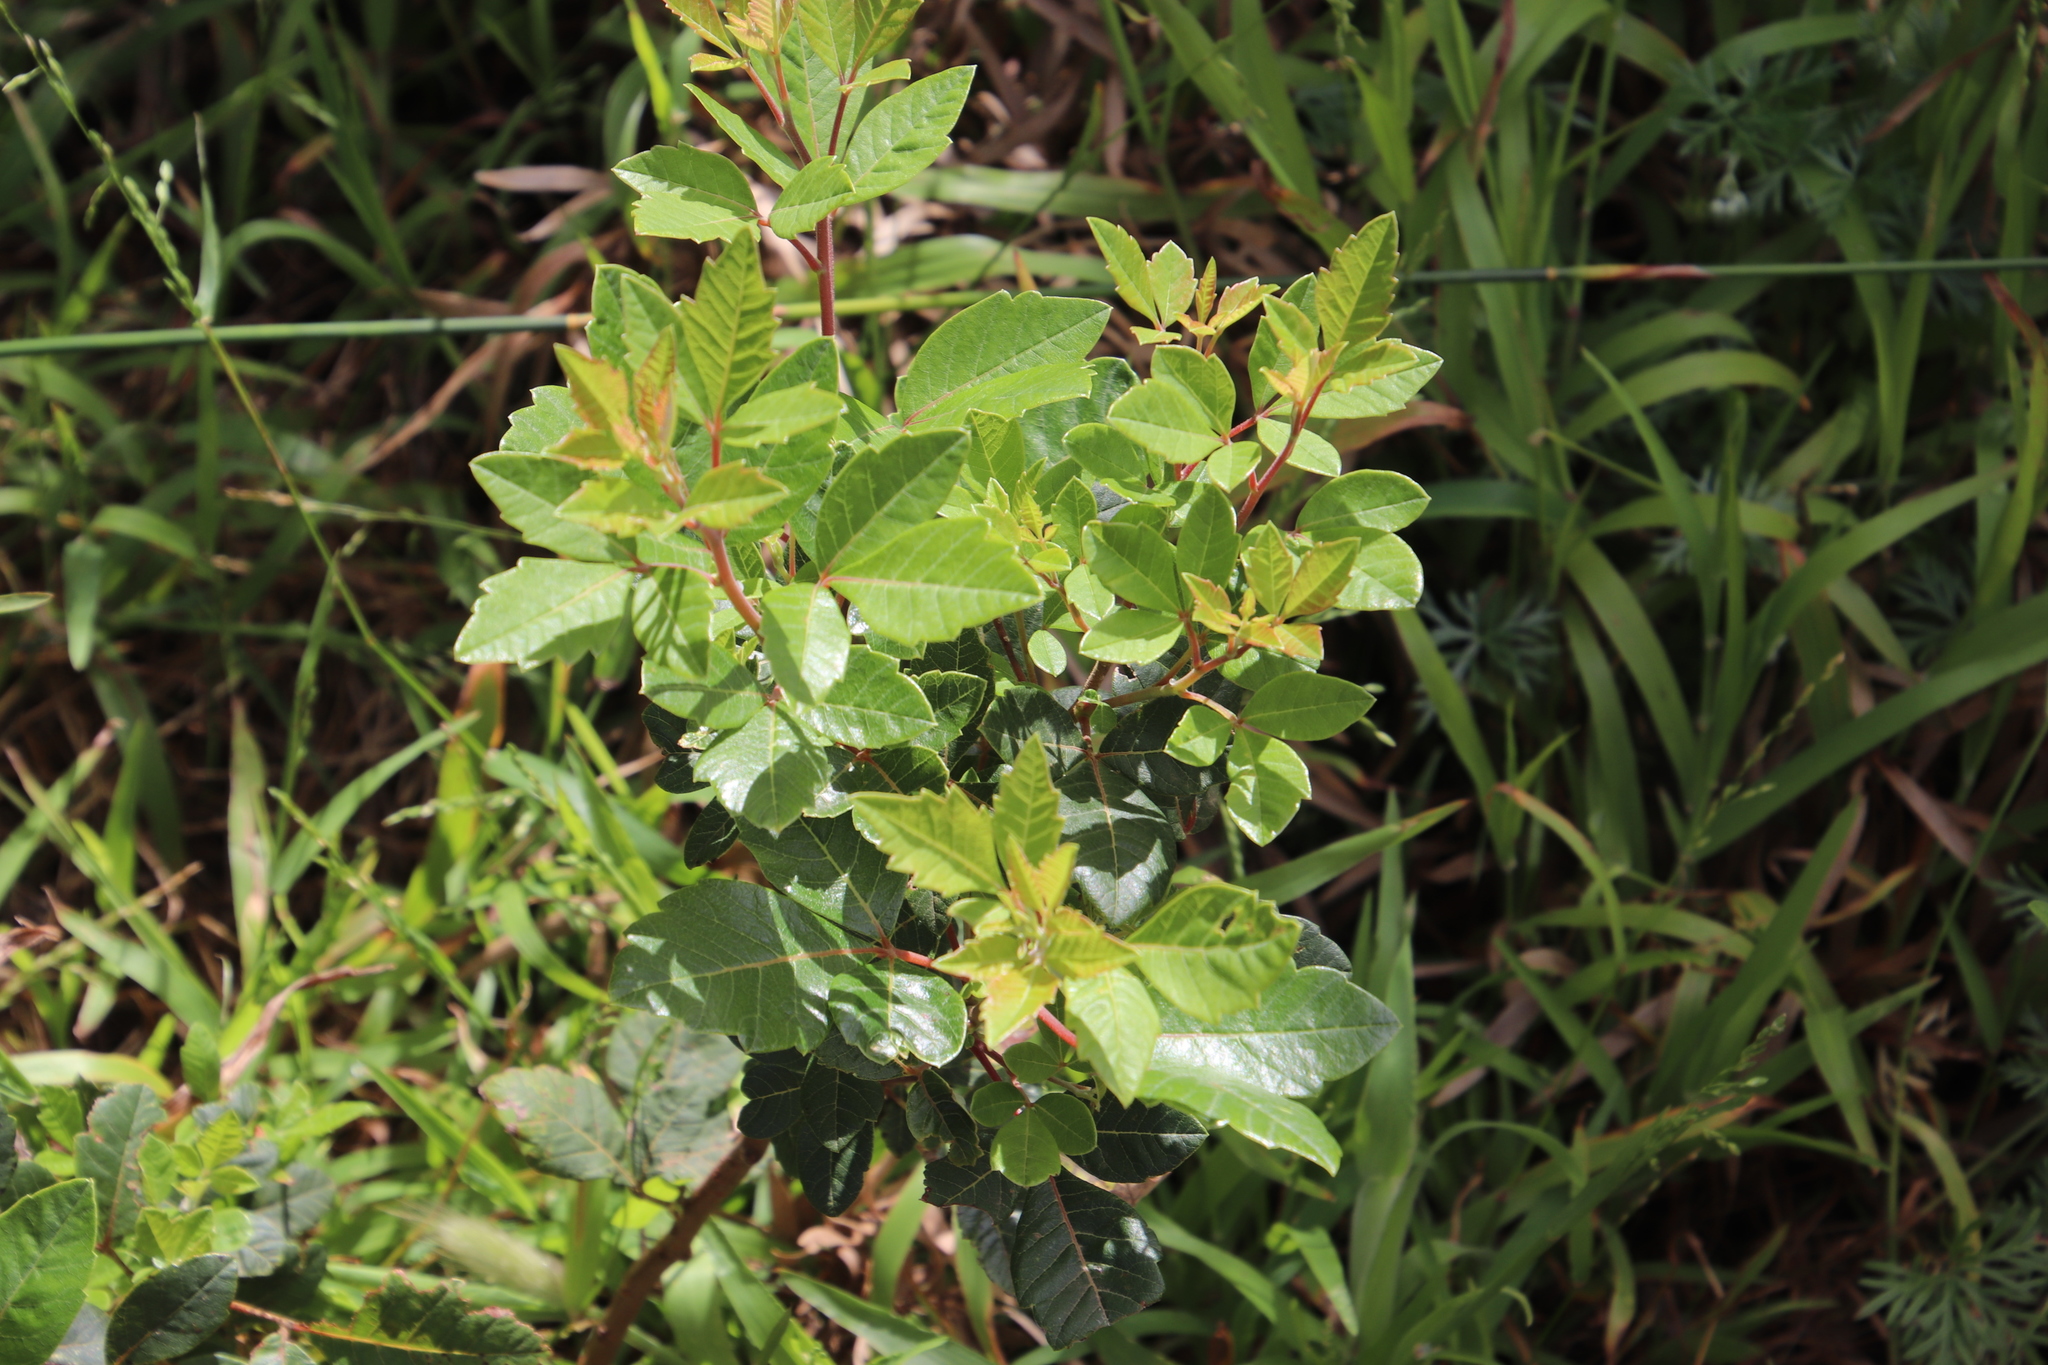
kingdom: Plantae
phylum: Tracheophyta
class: Magnoliopsida
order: Sapindales
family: Anacardiaceae
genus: Searsia
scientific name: Searsia tomentosa
